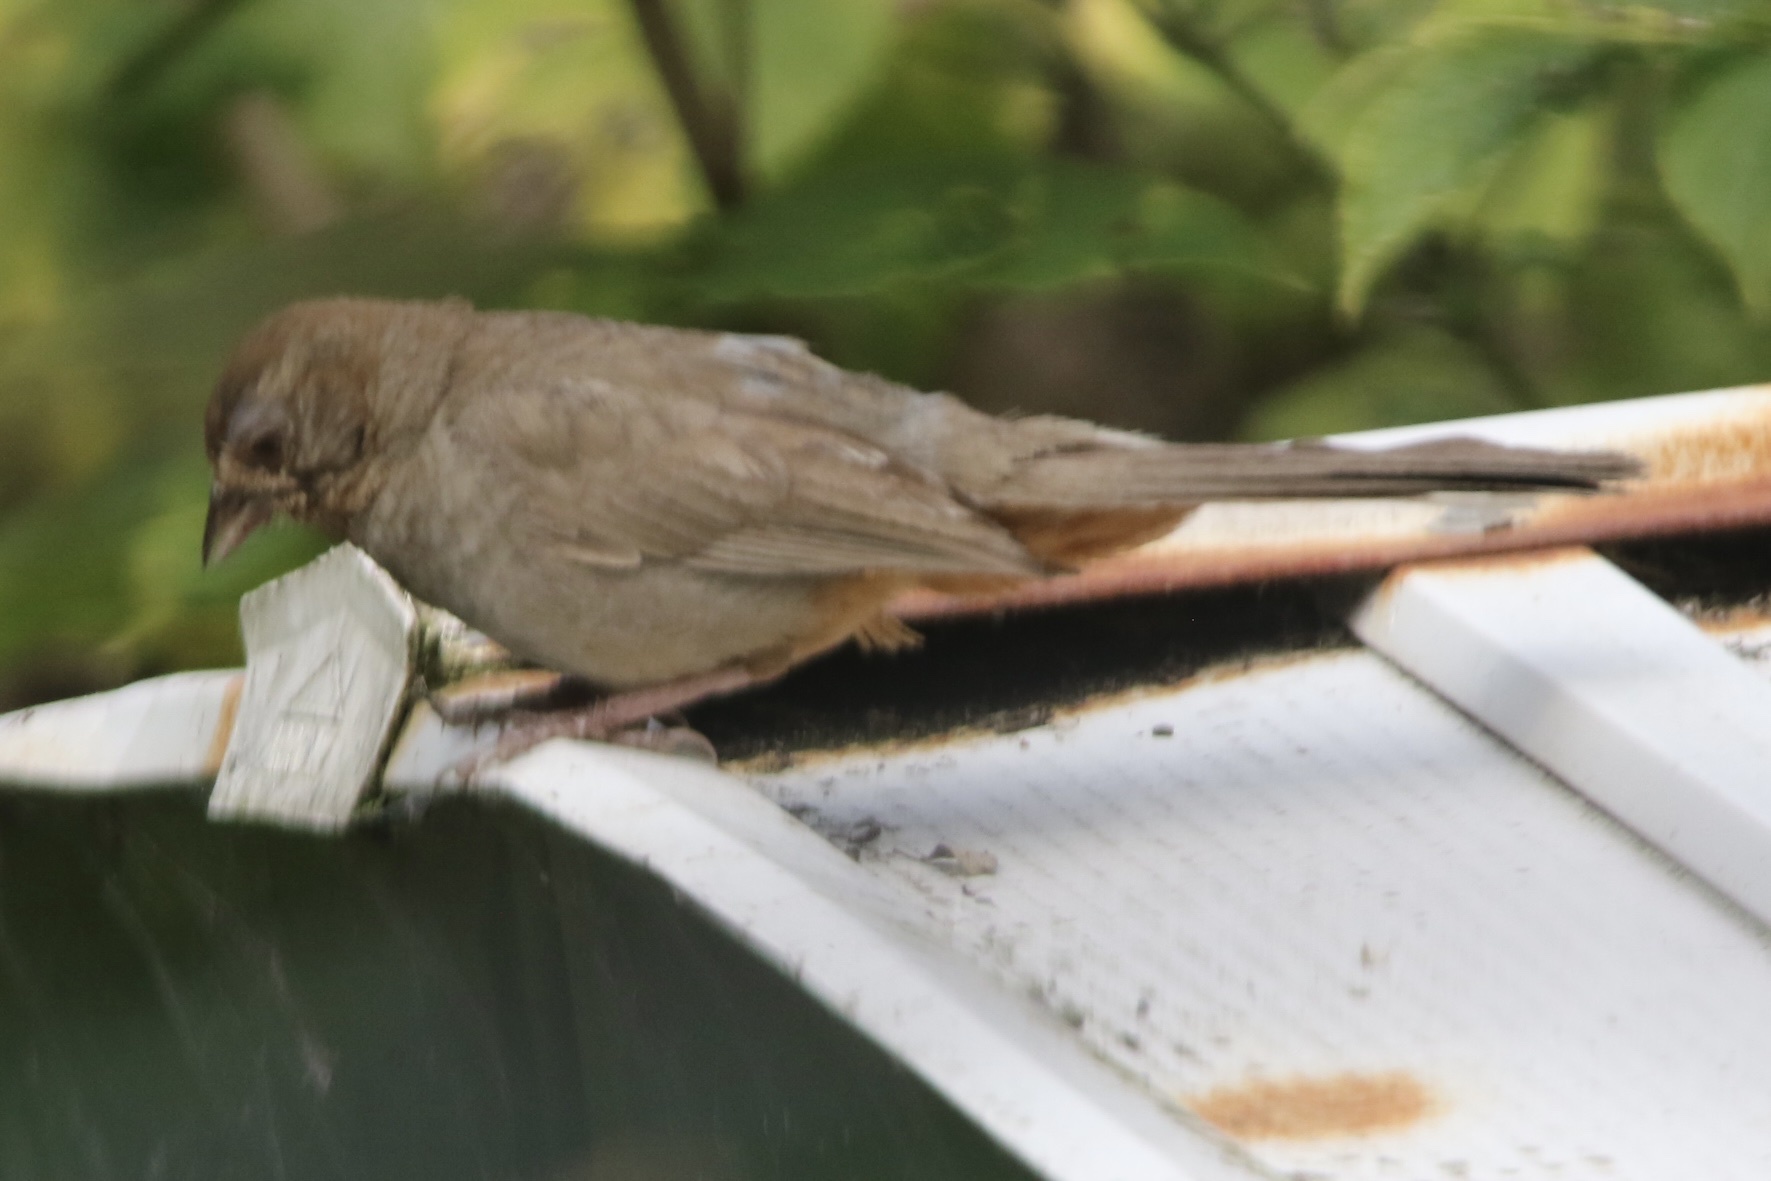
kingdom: Animalia
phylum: Chordata
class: Aves
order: Passeriformes
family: Passerellidae
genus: Melozone
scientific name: Melozone crissalis
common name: California towhee
